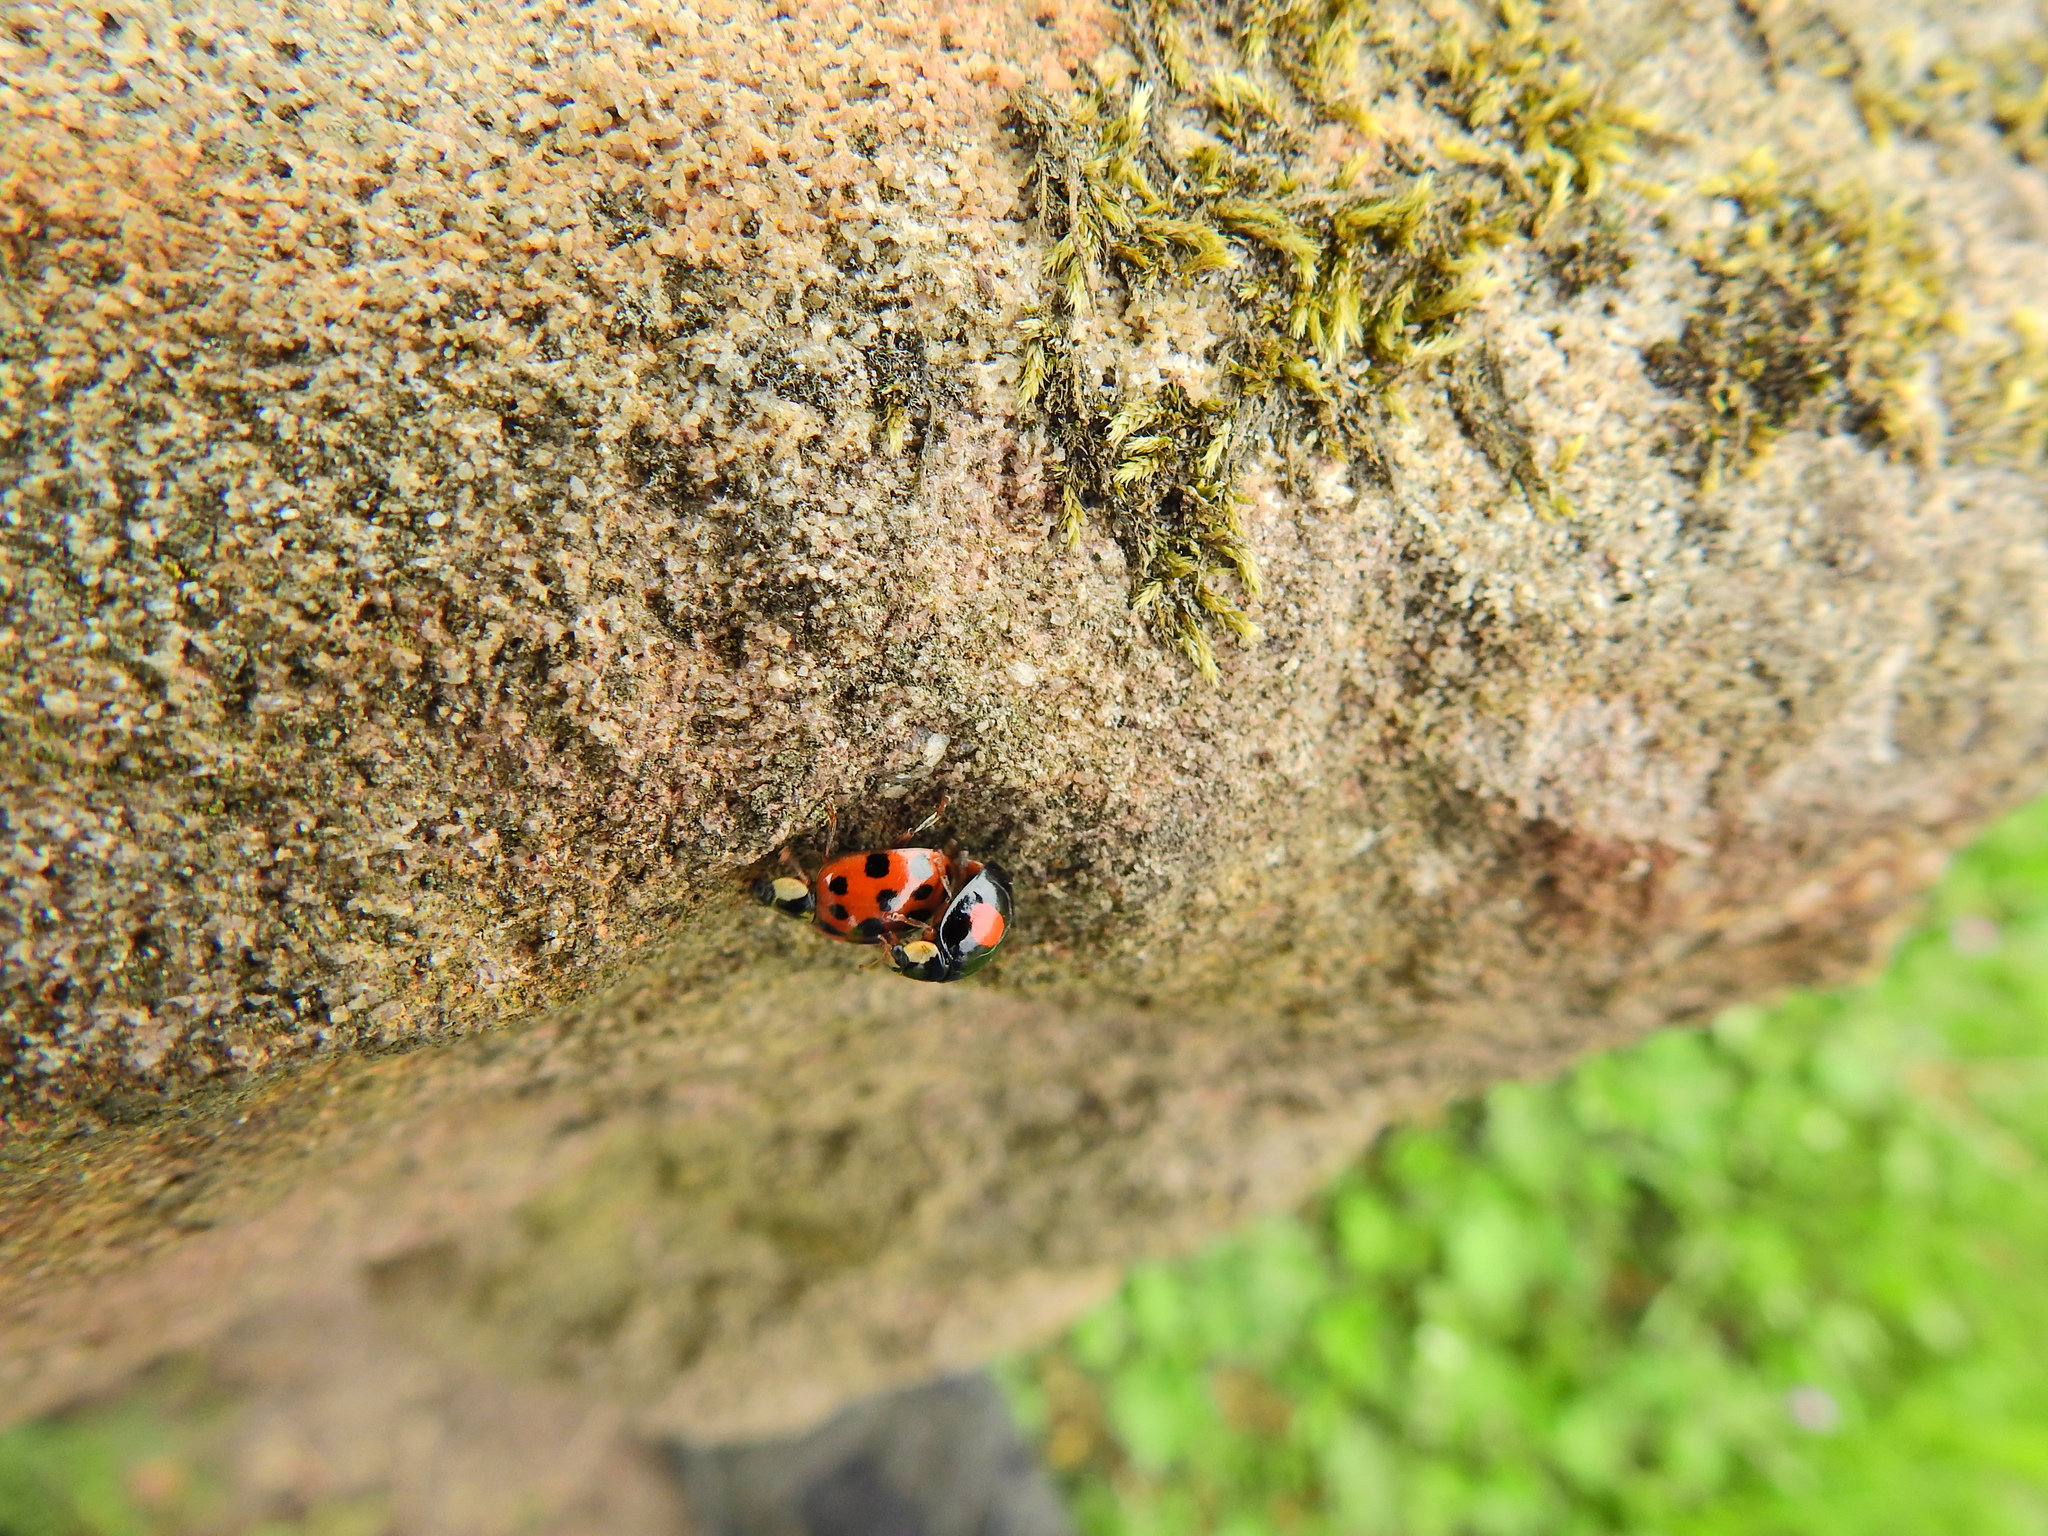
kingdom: Animalia
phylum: Arthropoda
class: Insecta
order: Coleoptera
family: Coccinellidae
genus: Harmonia
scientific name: Harmonia axyridis
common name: Harlequin ladybird
